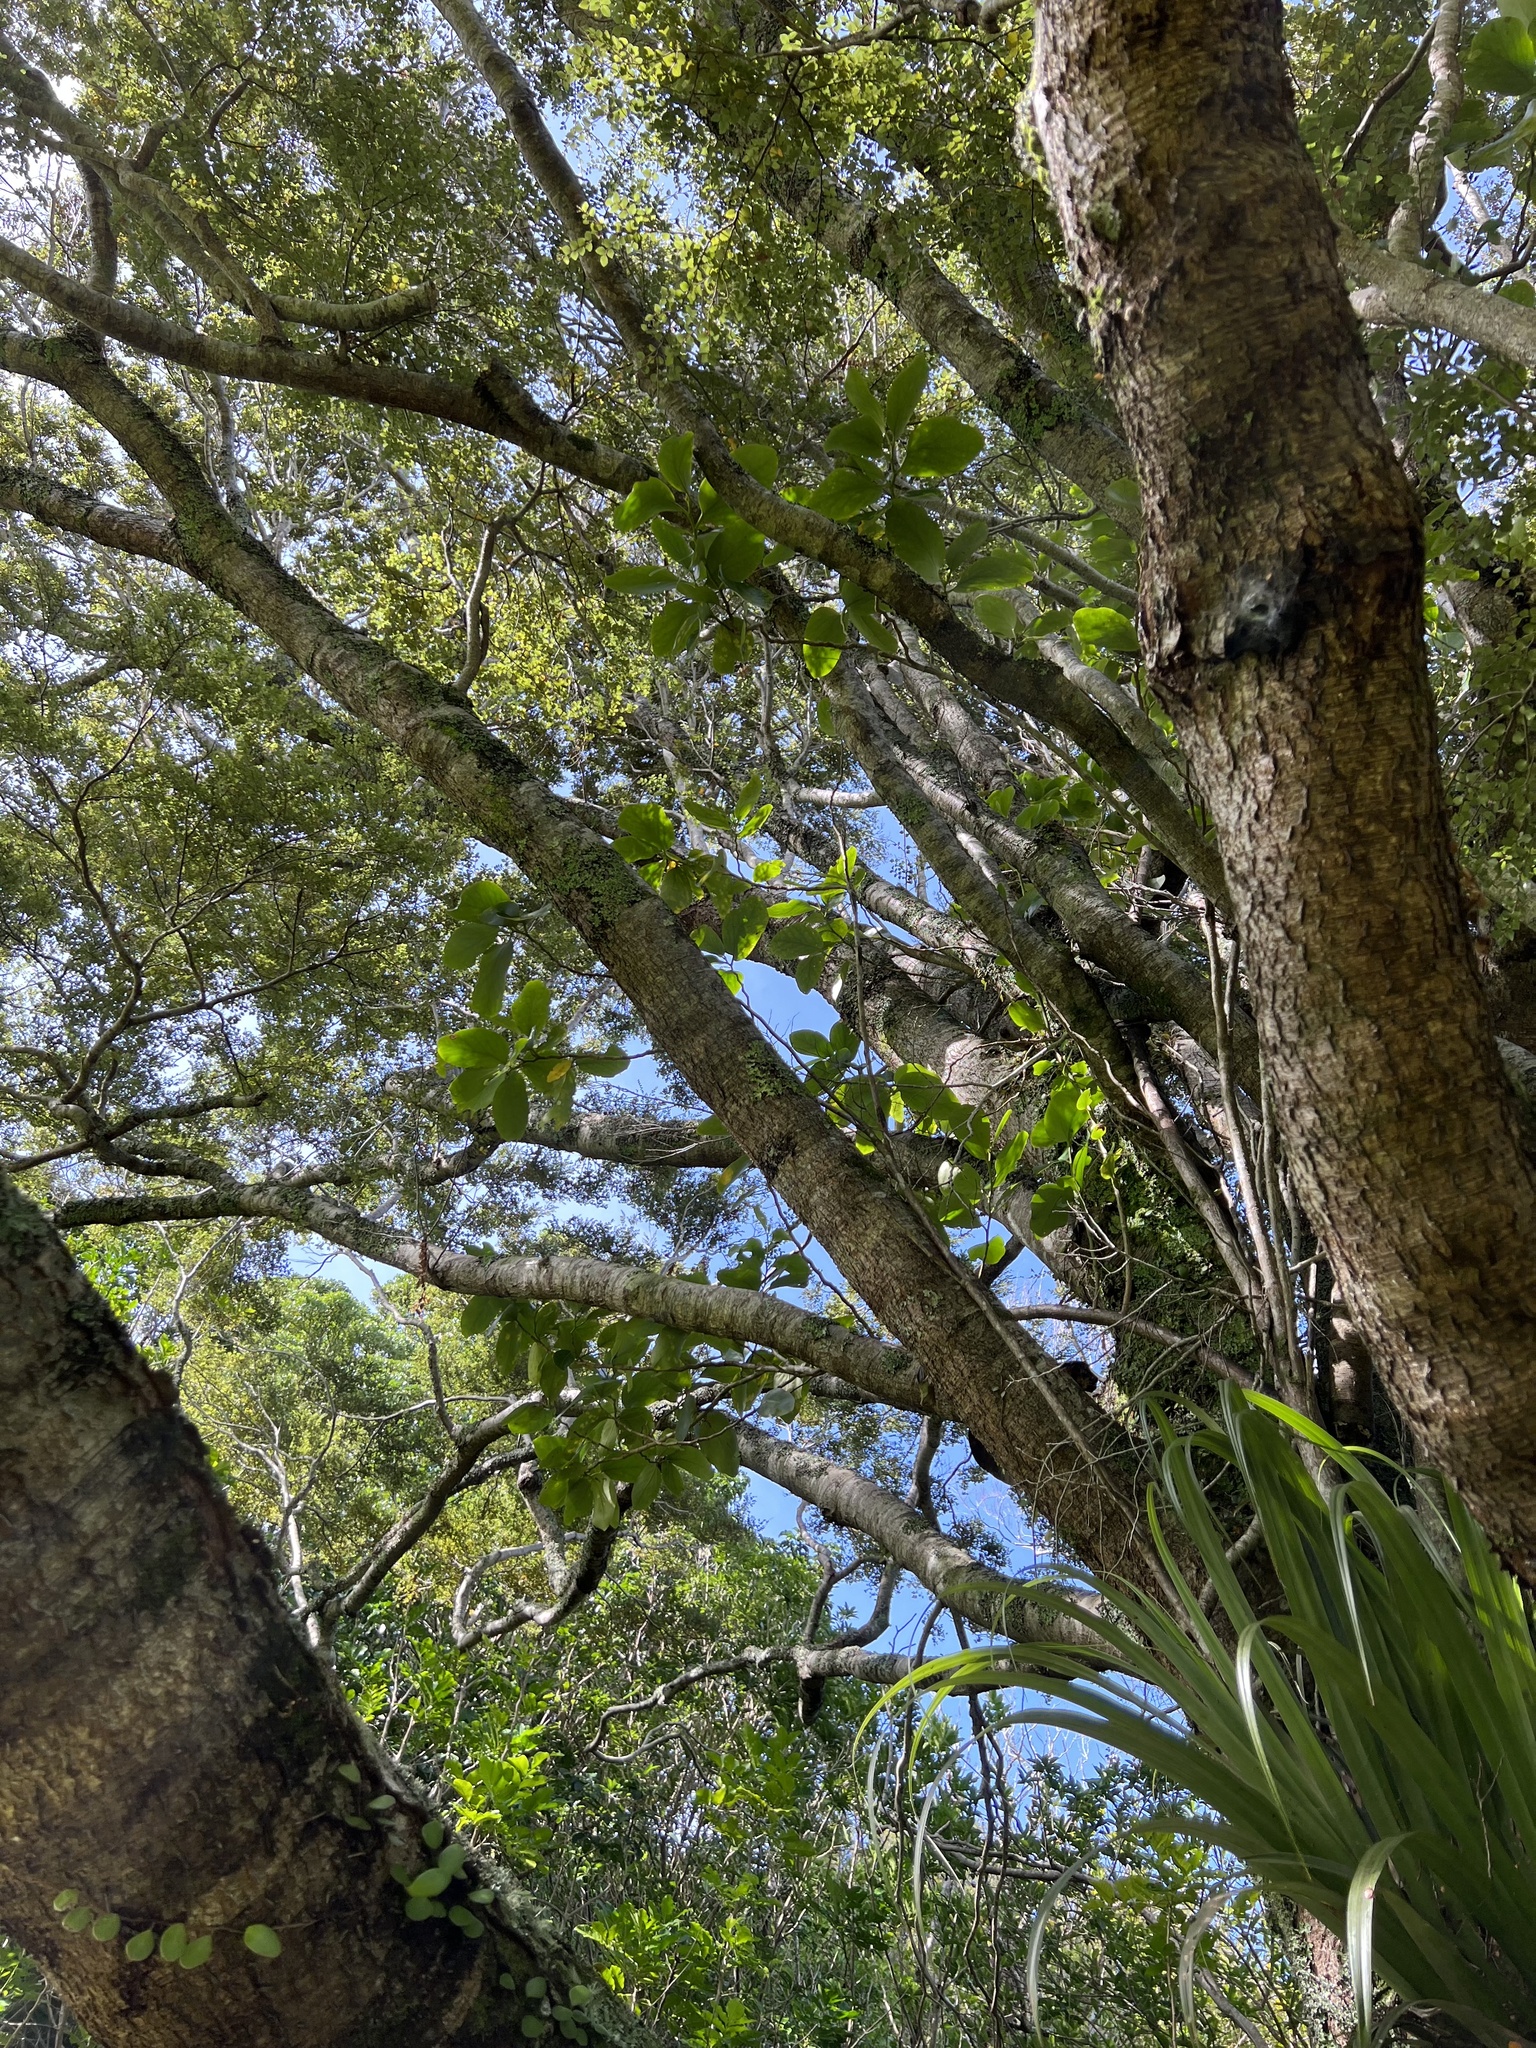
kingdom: Plantae
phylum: Tracheophyta
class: Magnoliopsida
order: Apiales
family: Griseliniaceae
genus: Griselinia
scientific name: Griselinia lucida
